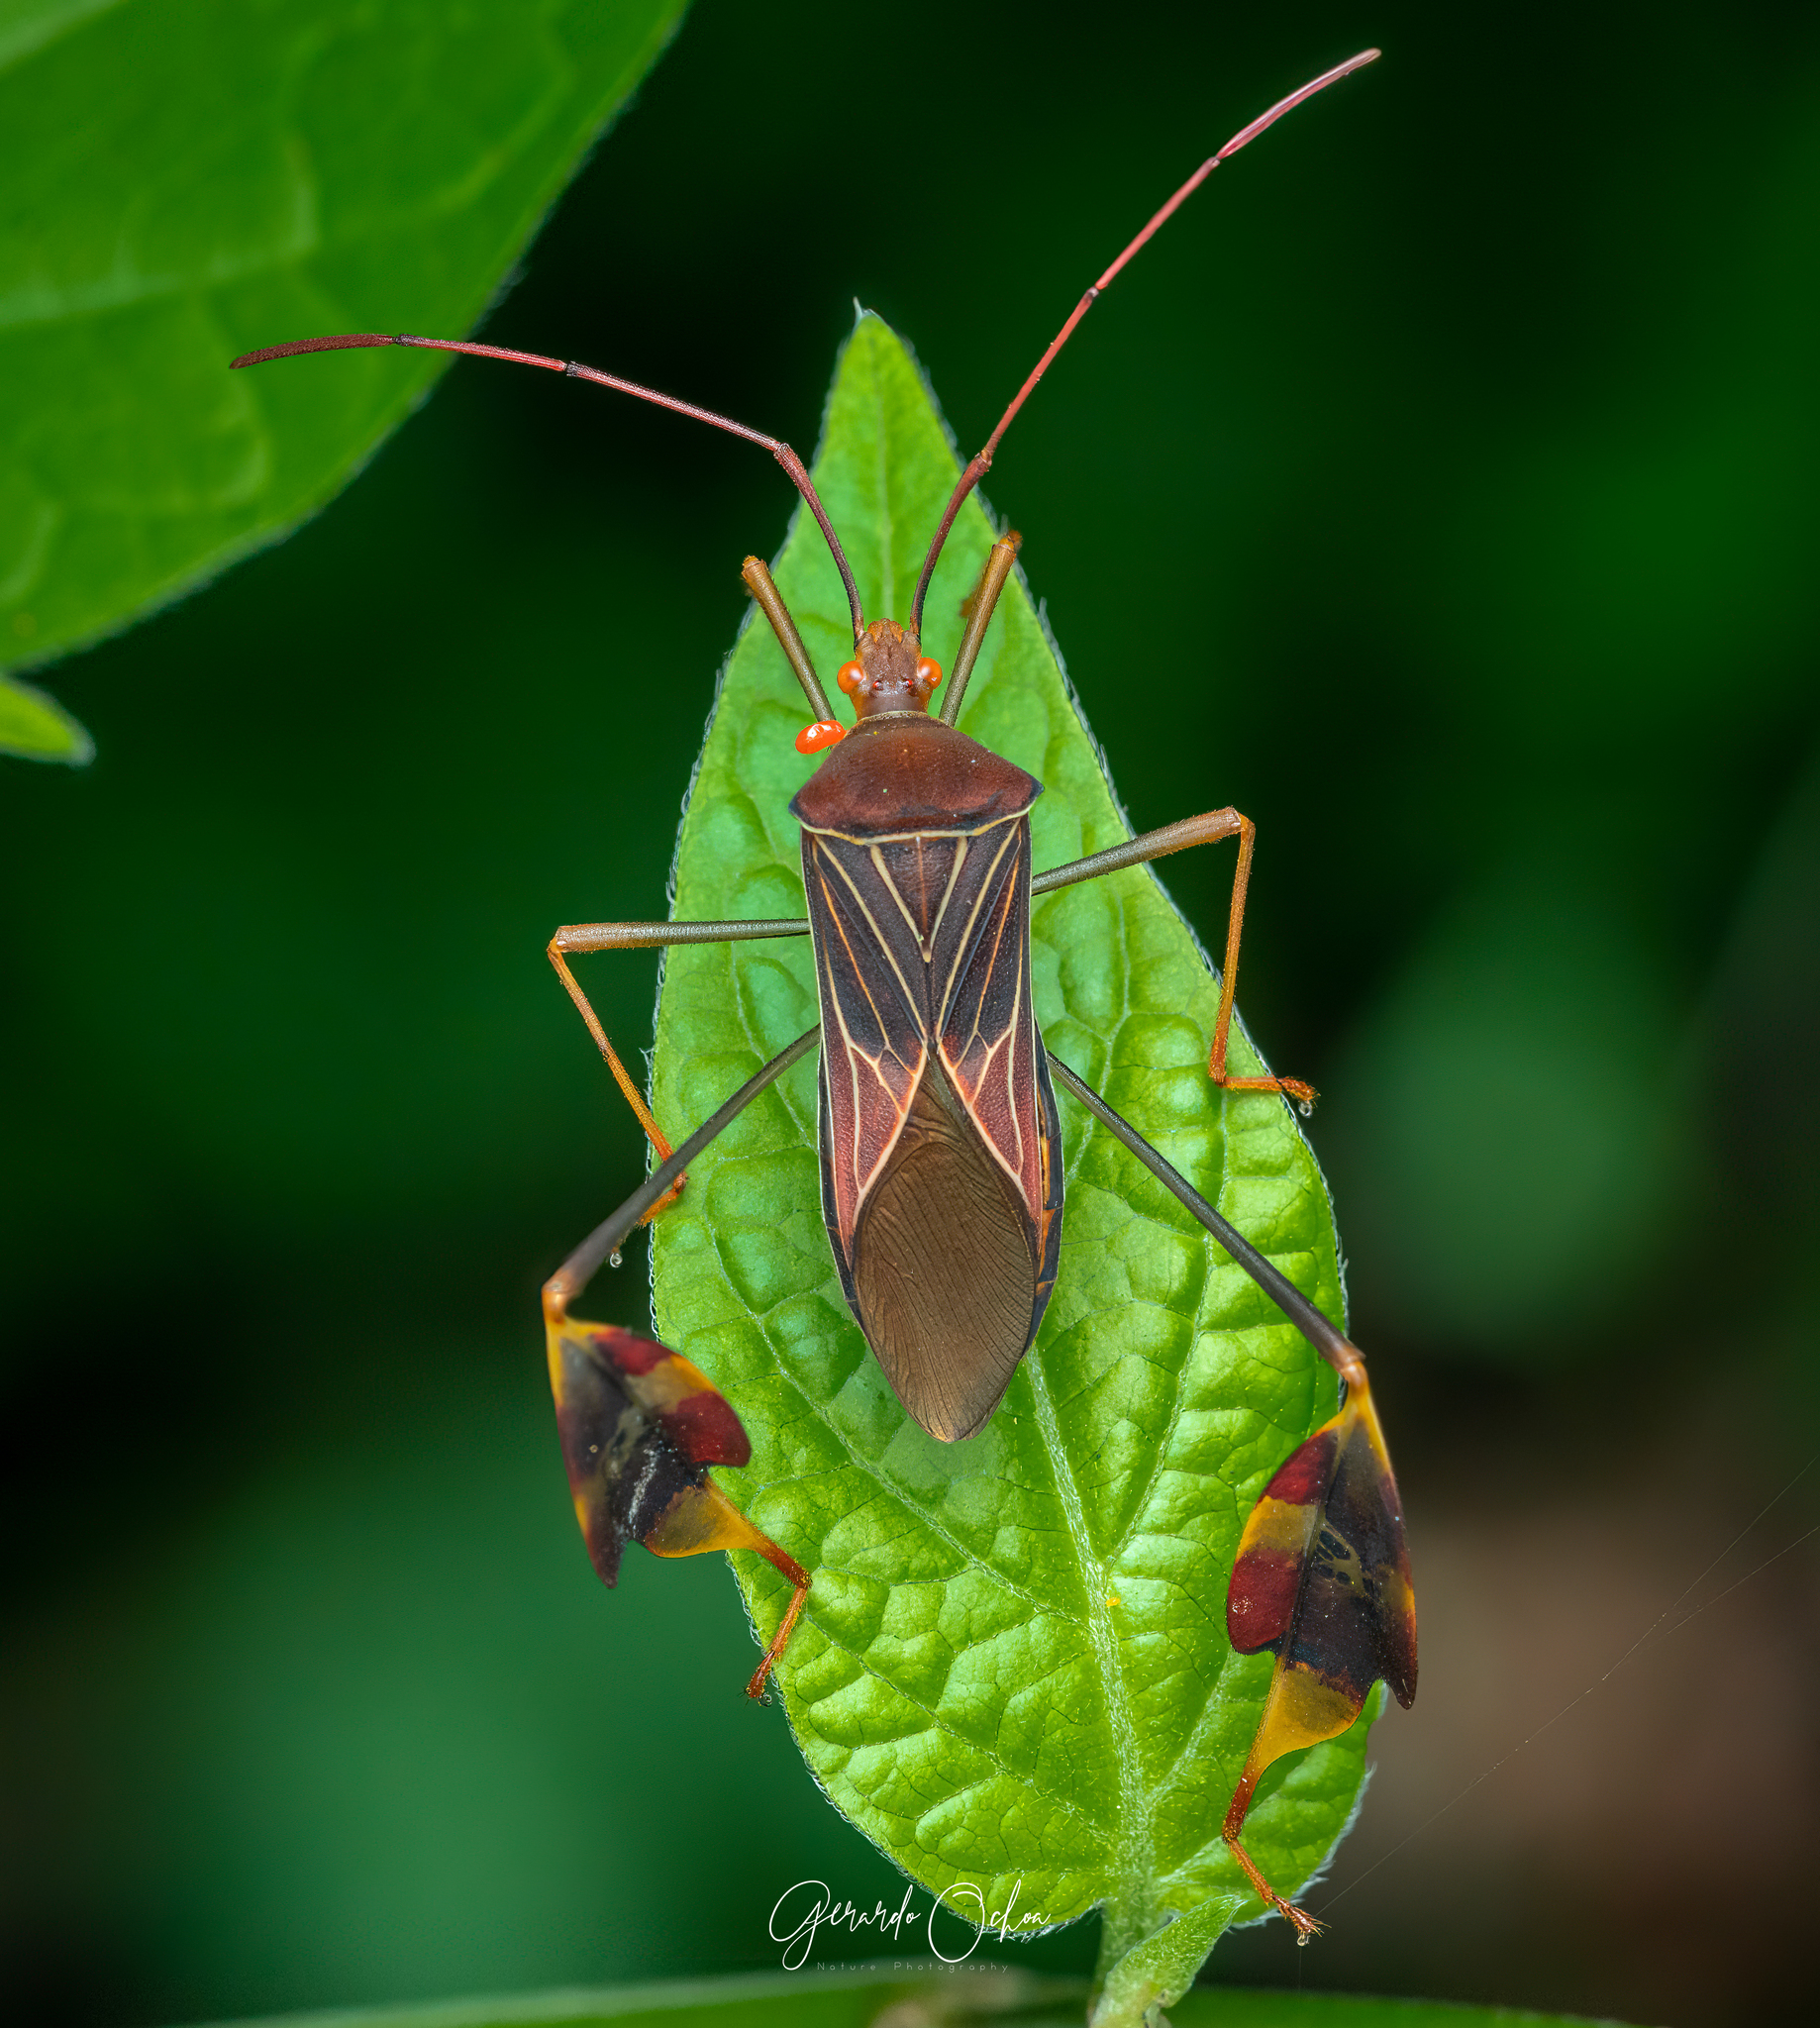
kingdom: Animalia
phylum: Arthropoda
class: Insecta
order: Hemiptera
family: Coreidae
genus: Bitta
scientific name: Bitta
